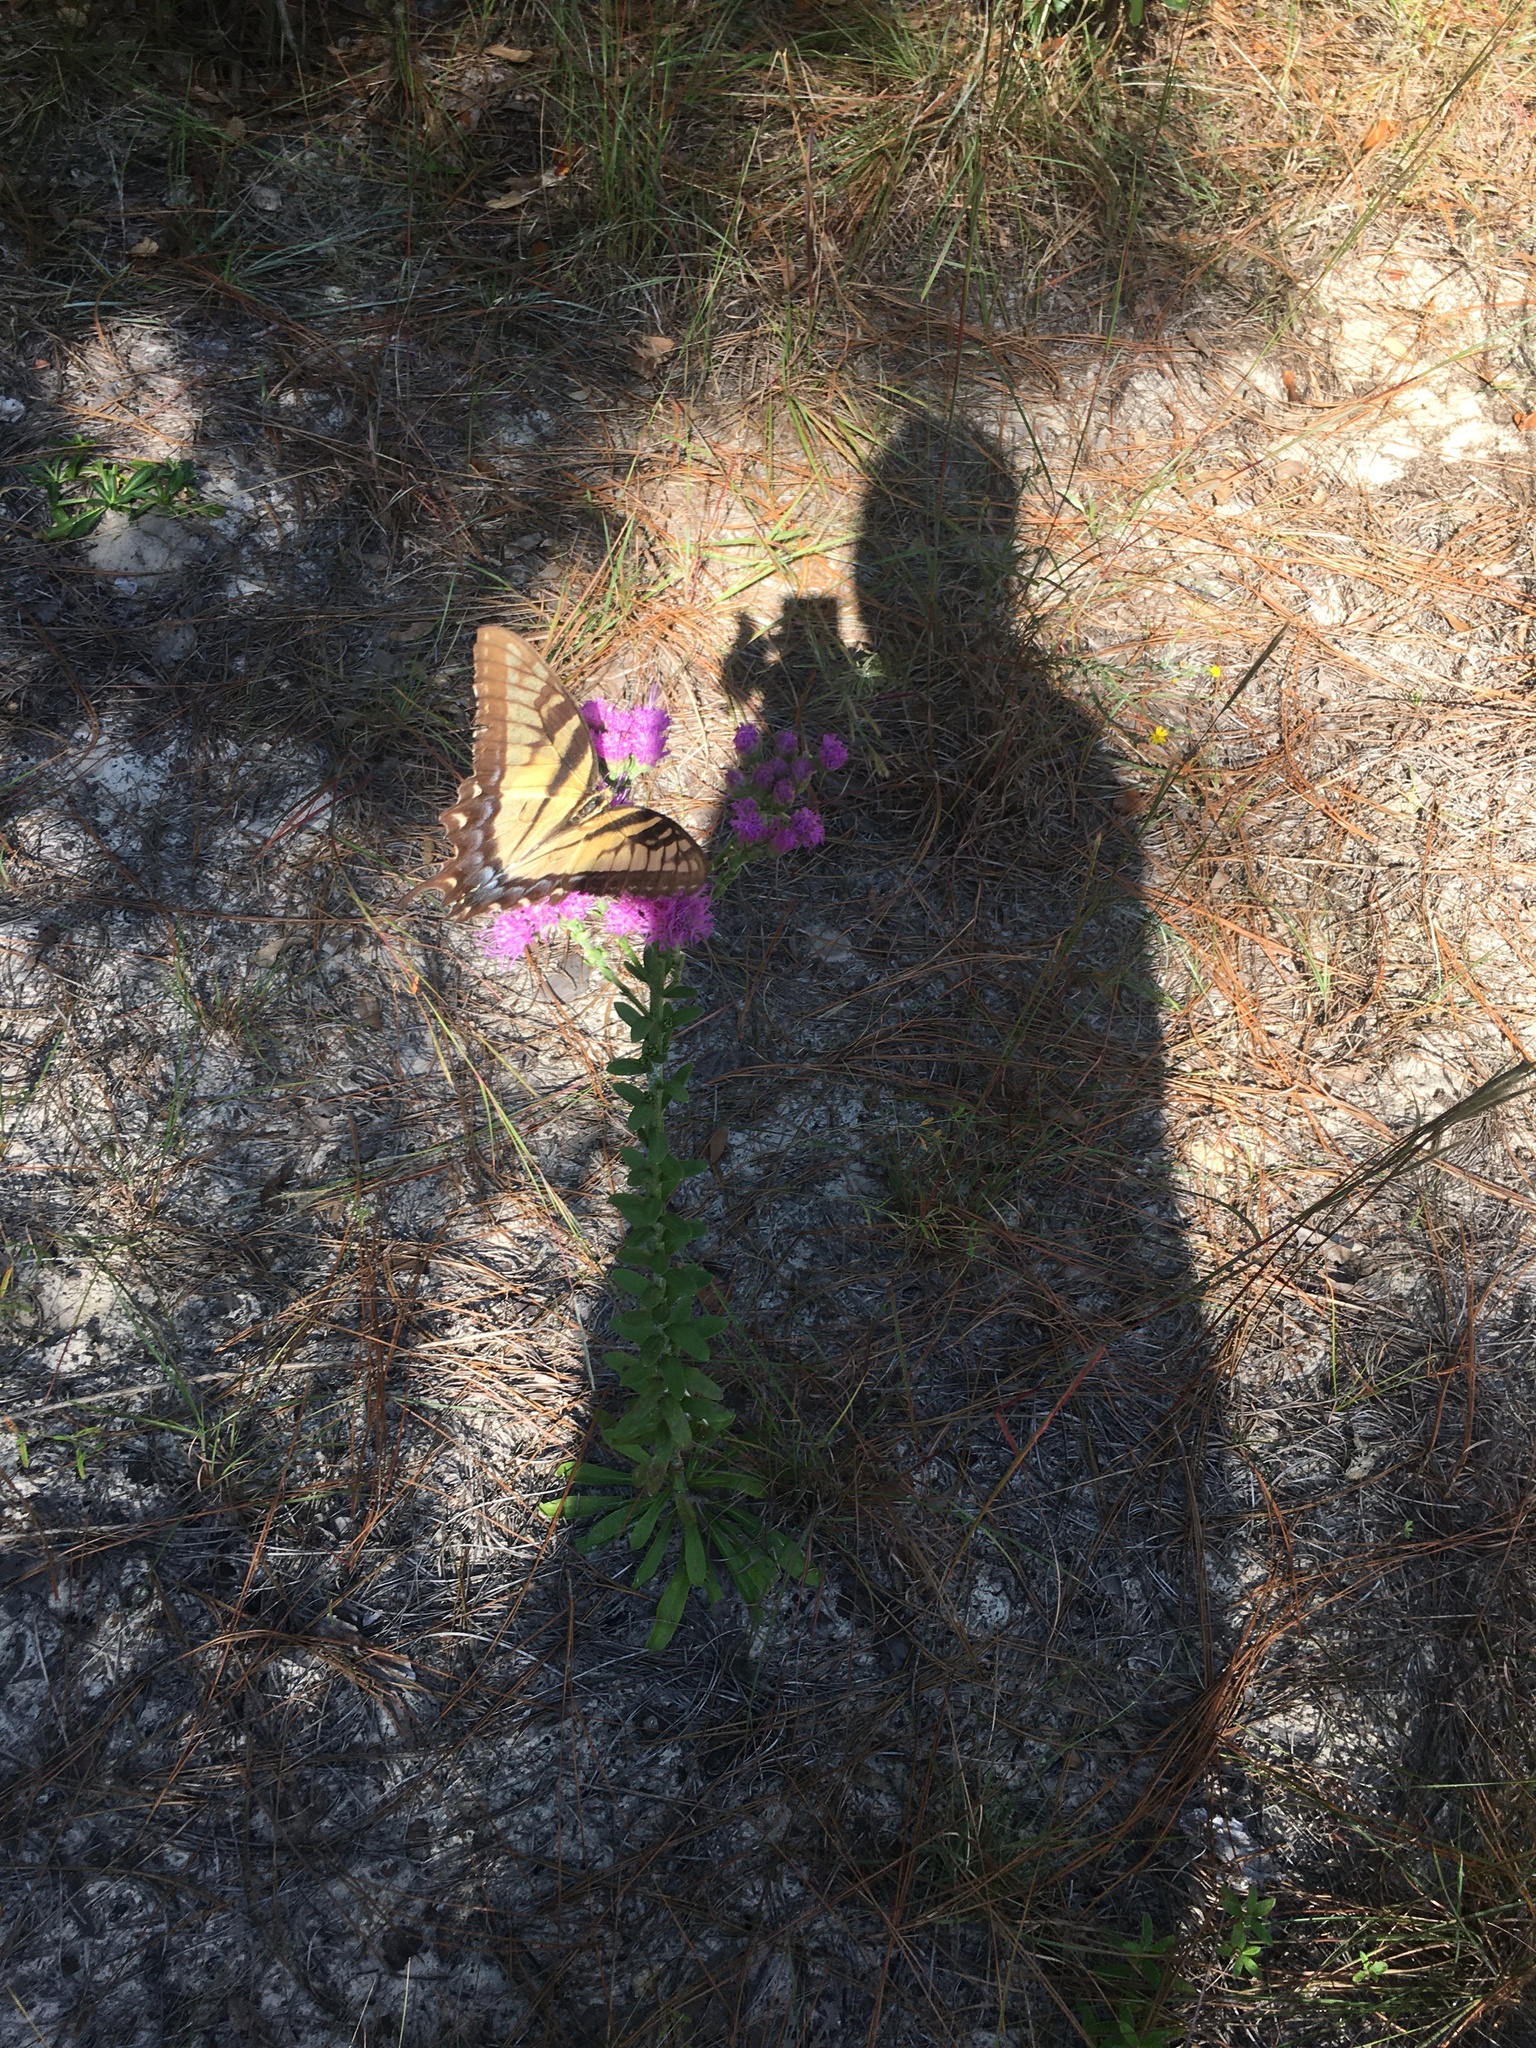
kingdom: Animalia
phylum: Arthropoda
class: Insecta
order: Lepidoptera
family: Papilionidae
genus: Papilio
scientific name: Papilio glaucus
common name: Tiger swallowtail
